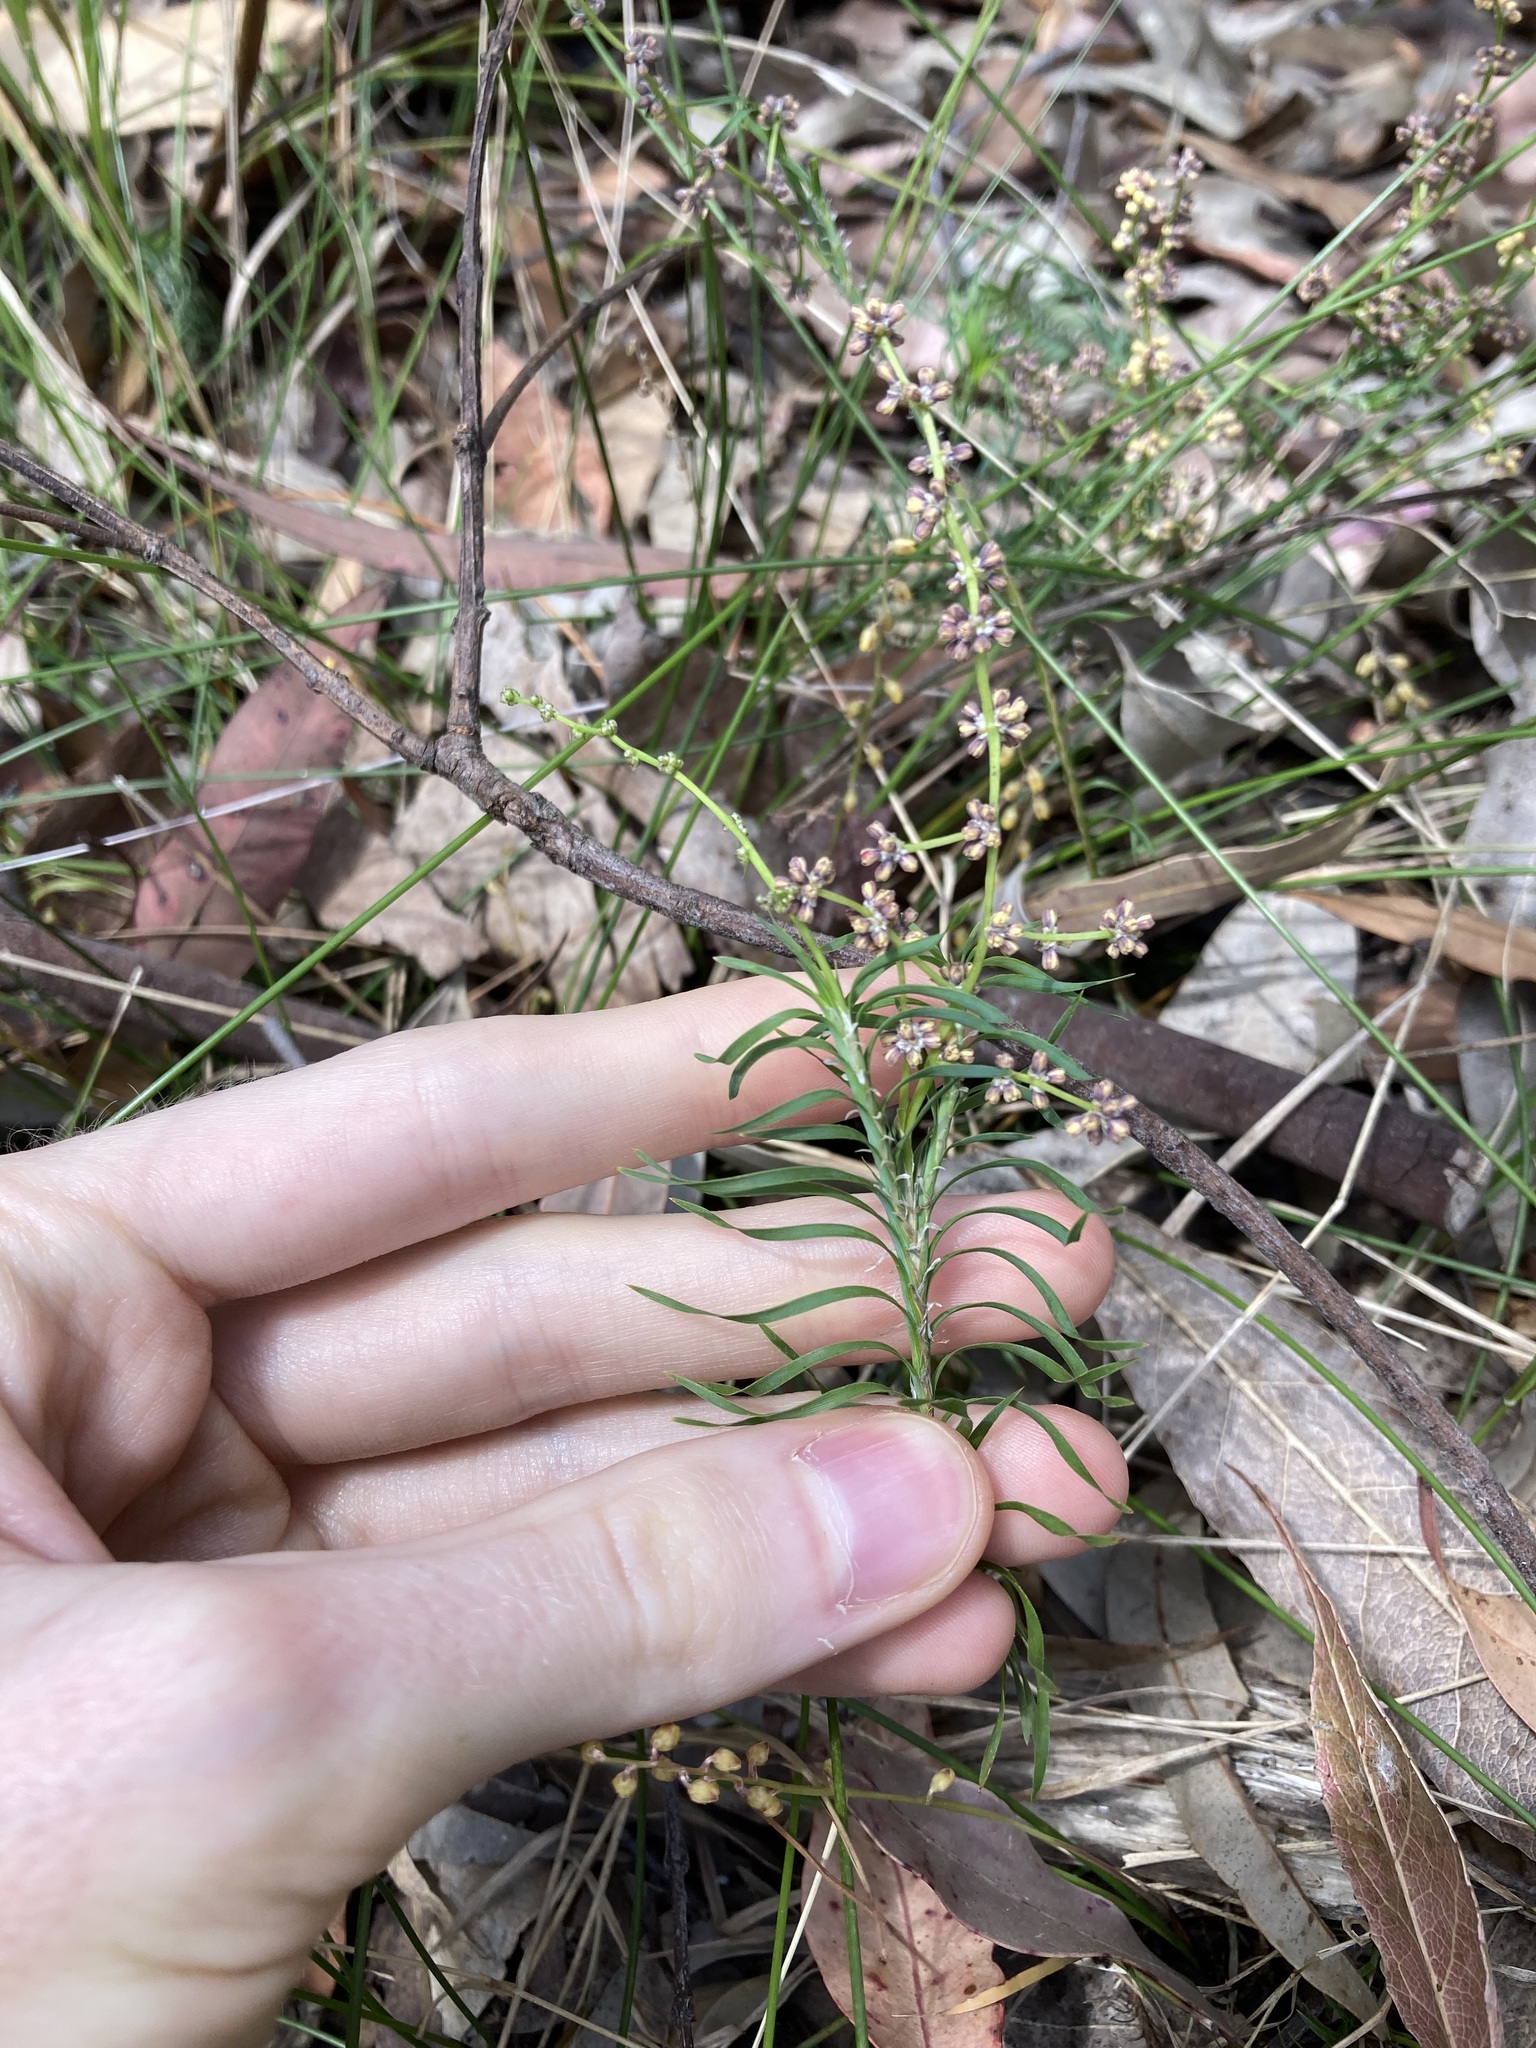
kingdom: Plantae
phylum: Tracheophyta
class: Liliopsida
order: Asparagales
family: Asparagaceae
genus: Lomandra
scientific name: Lomandra obliqua
